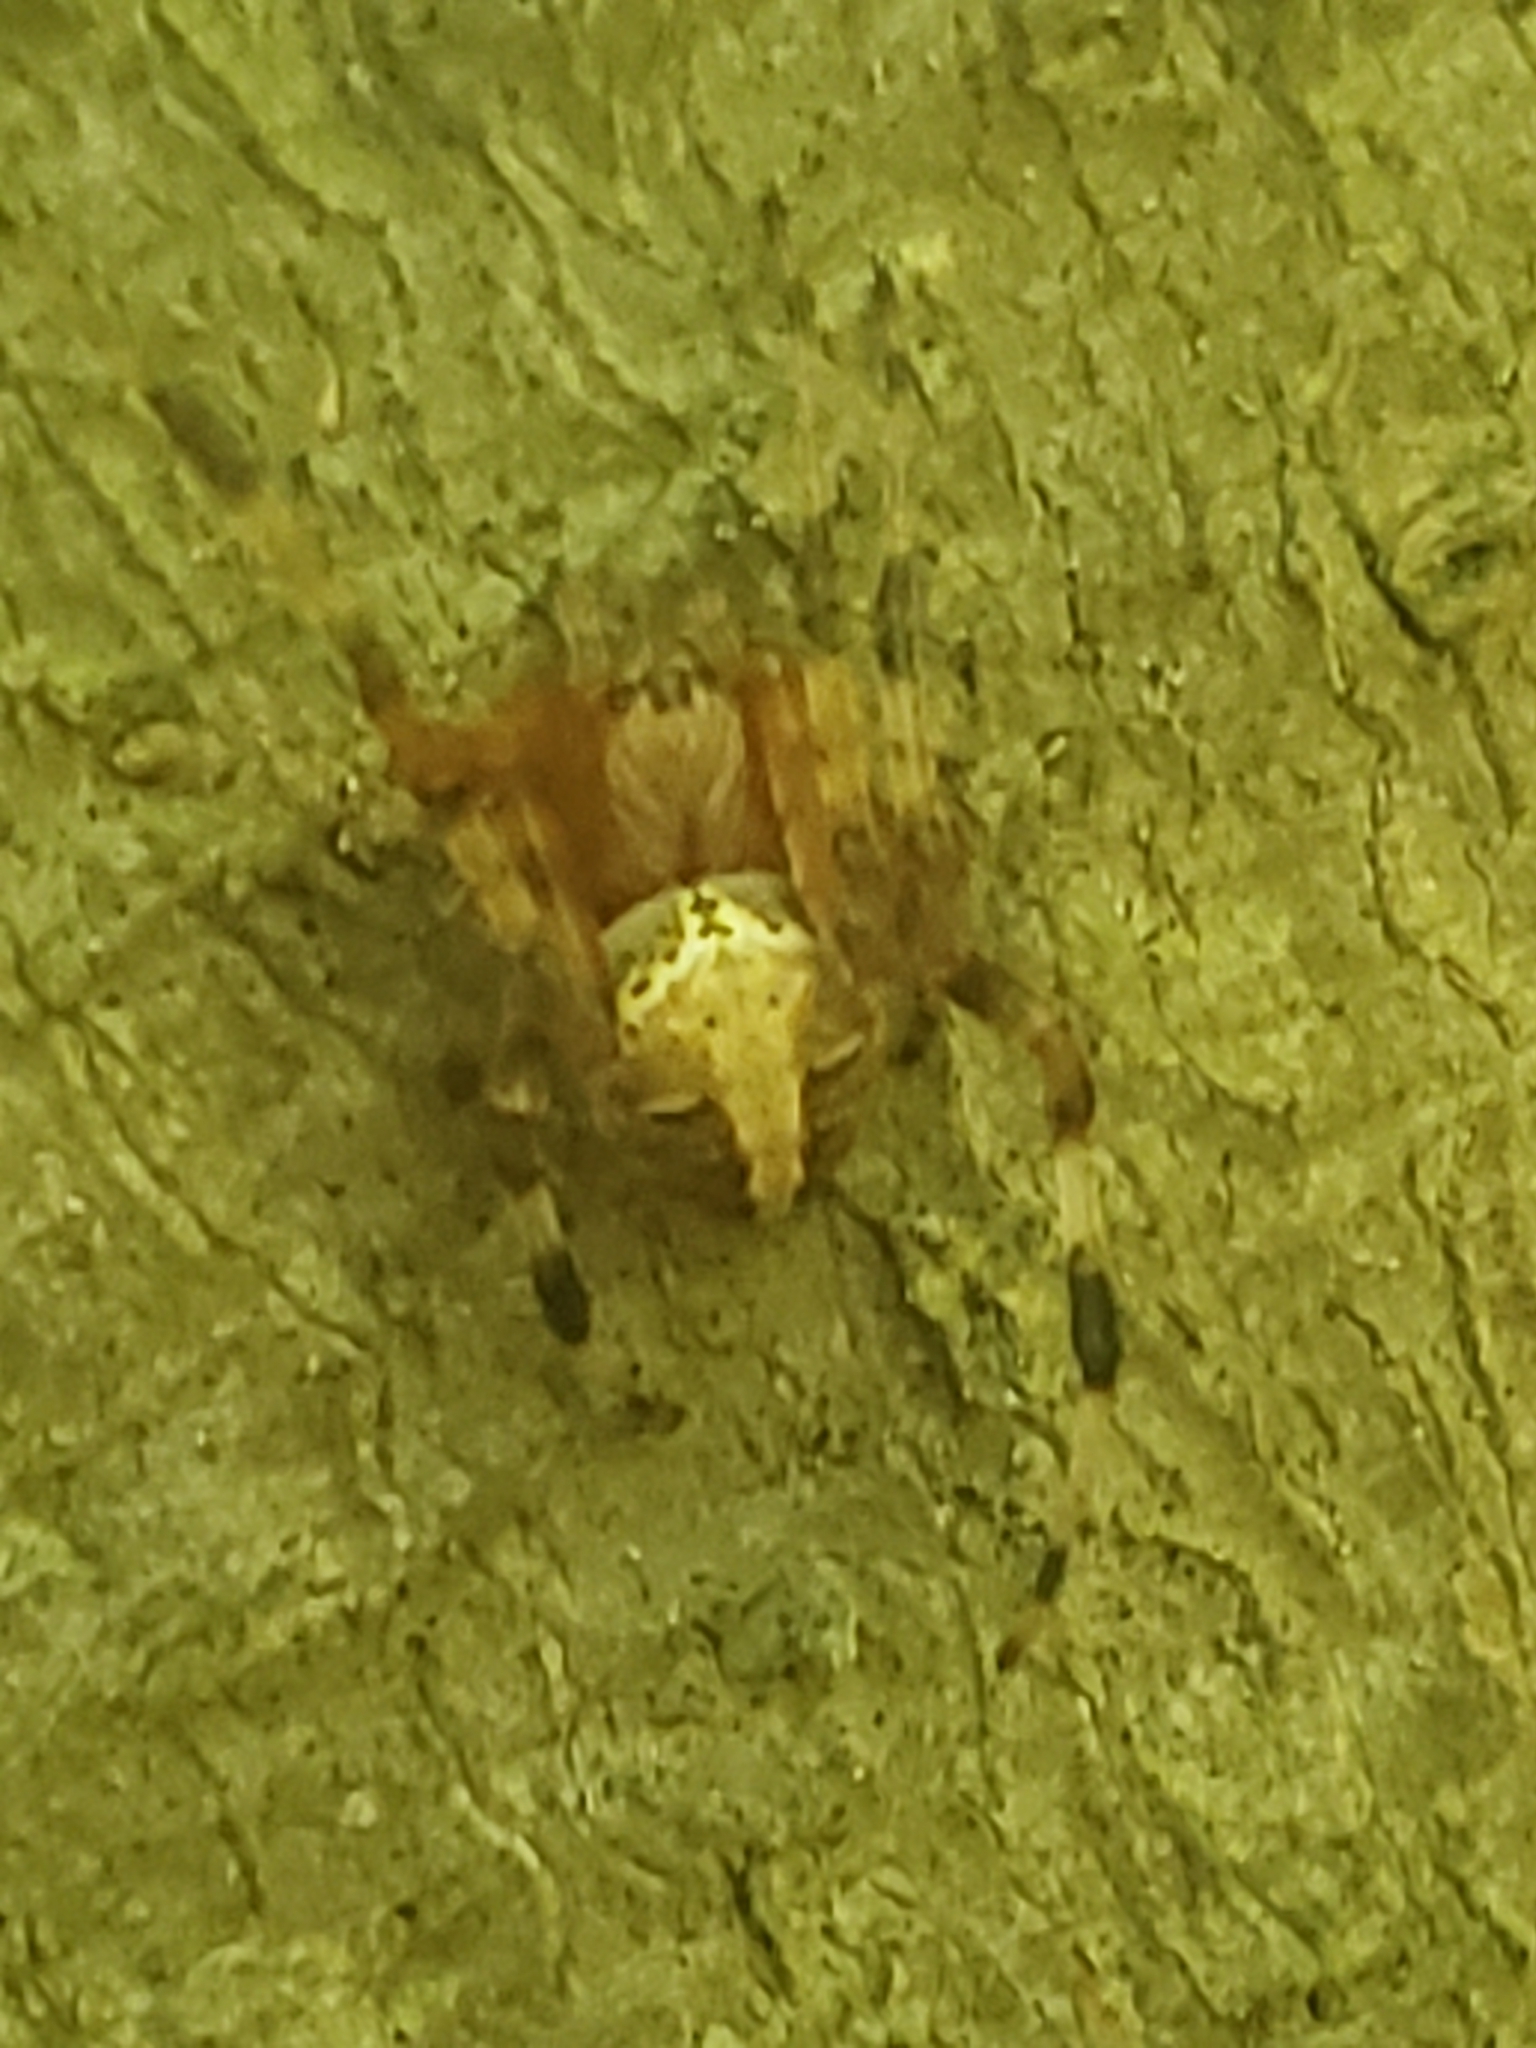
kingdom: Animalia
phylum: Arthropoda
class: Arachnida
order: Araneae
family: Araneidae
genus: Neoscona
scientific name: Neoscona domiciliorum
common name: Red-femured spotted orbweaver
